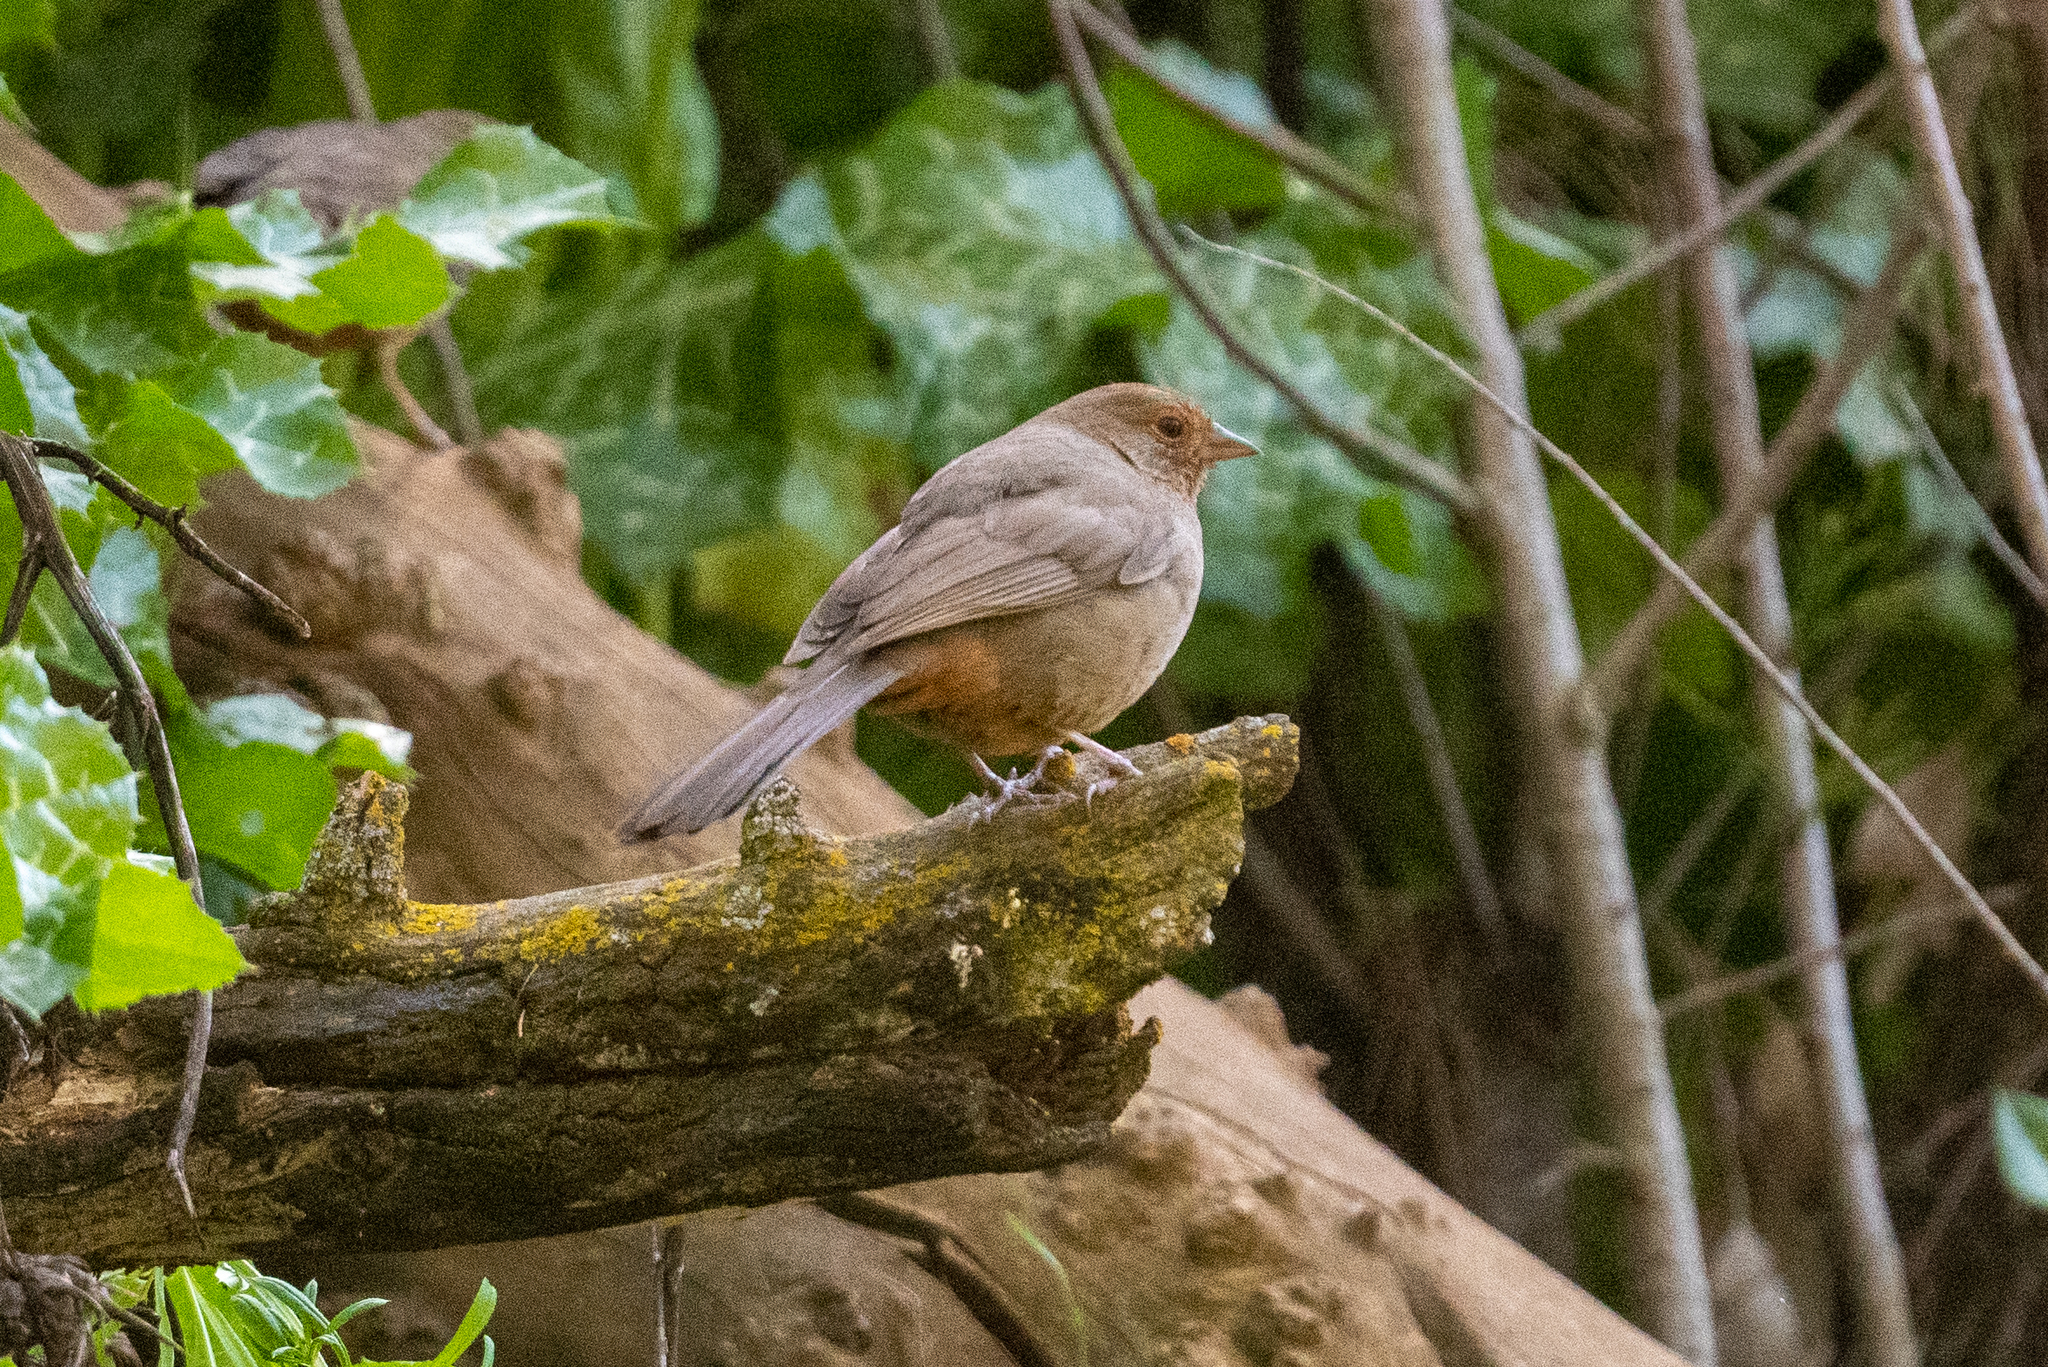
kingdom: Animalia
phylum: Chordata
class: Aves
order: Passeriformes
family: Passerellidae
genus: Melozone
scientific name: Melozone crissalis
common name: California towhee
